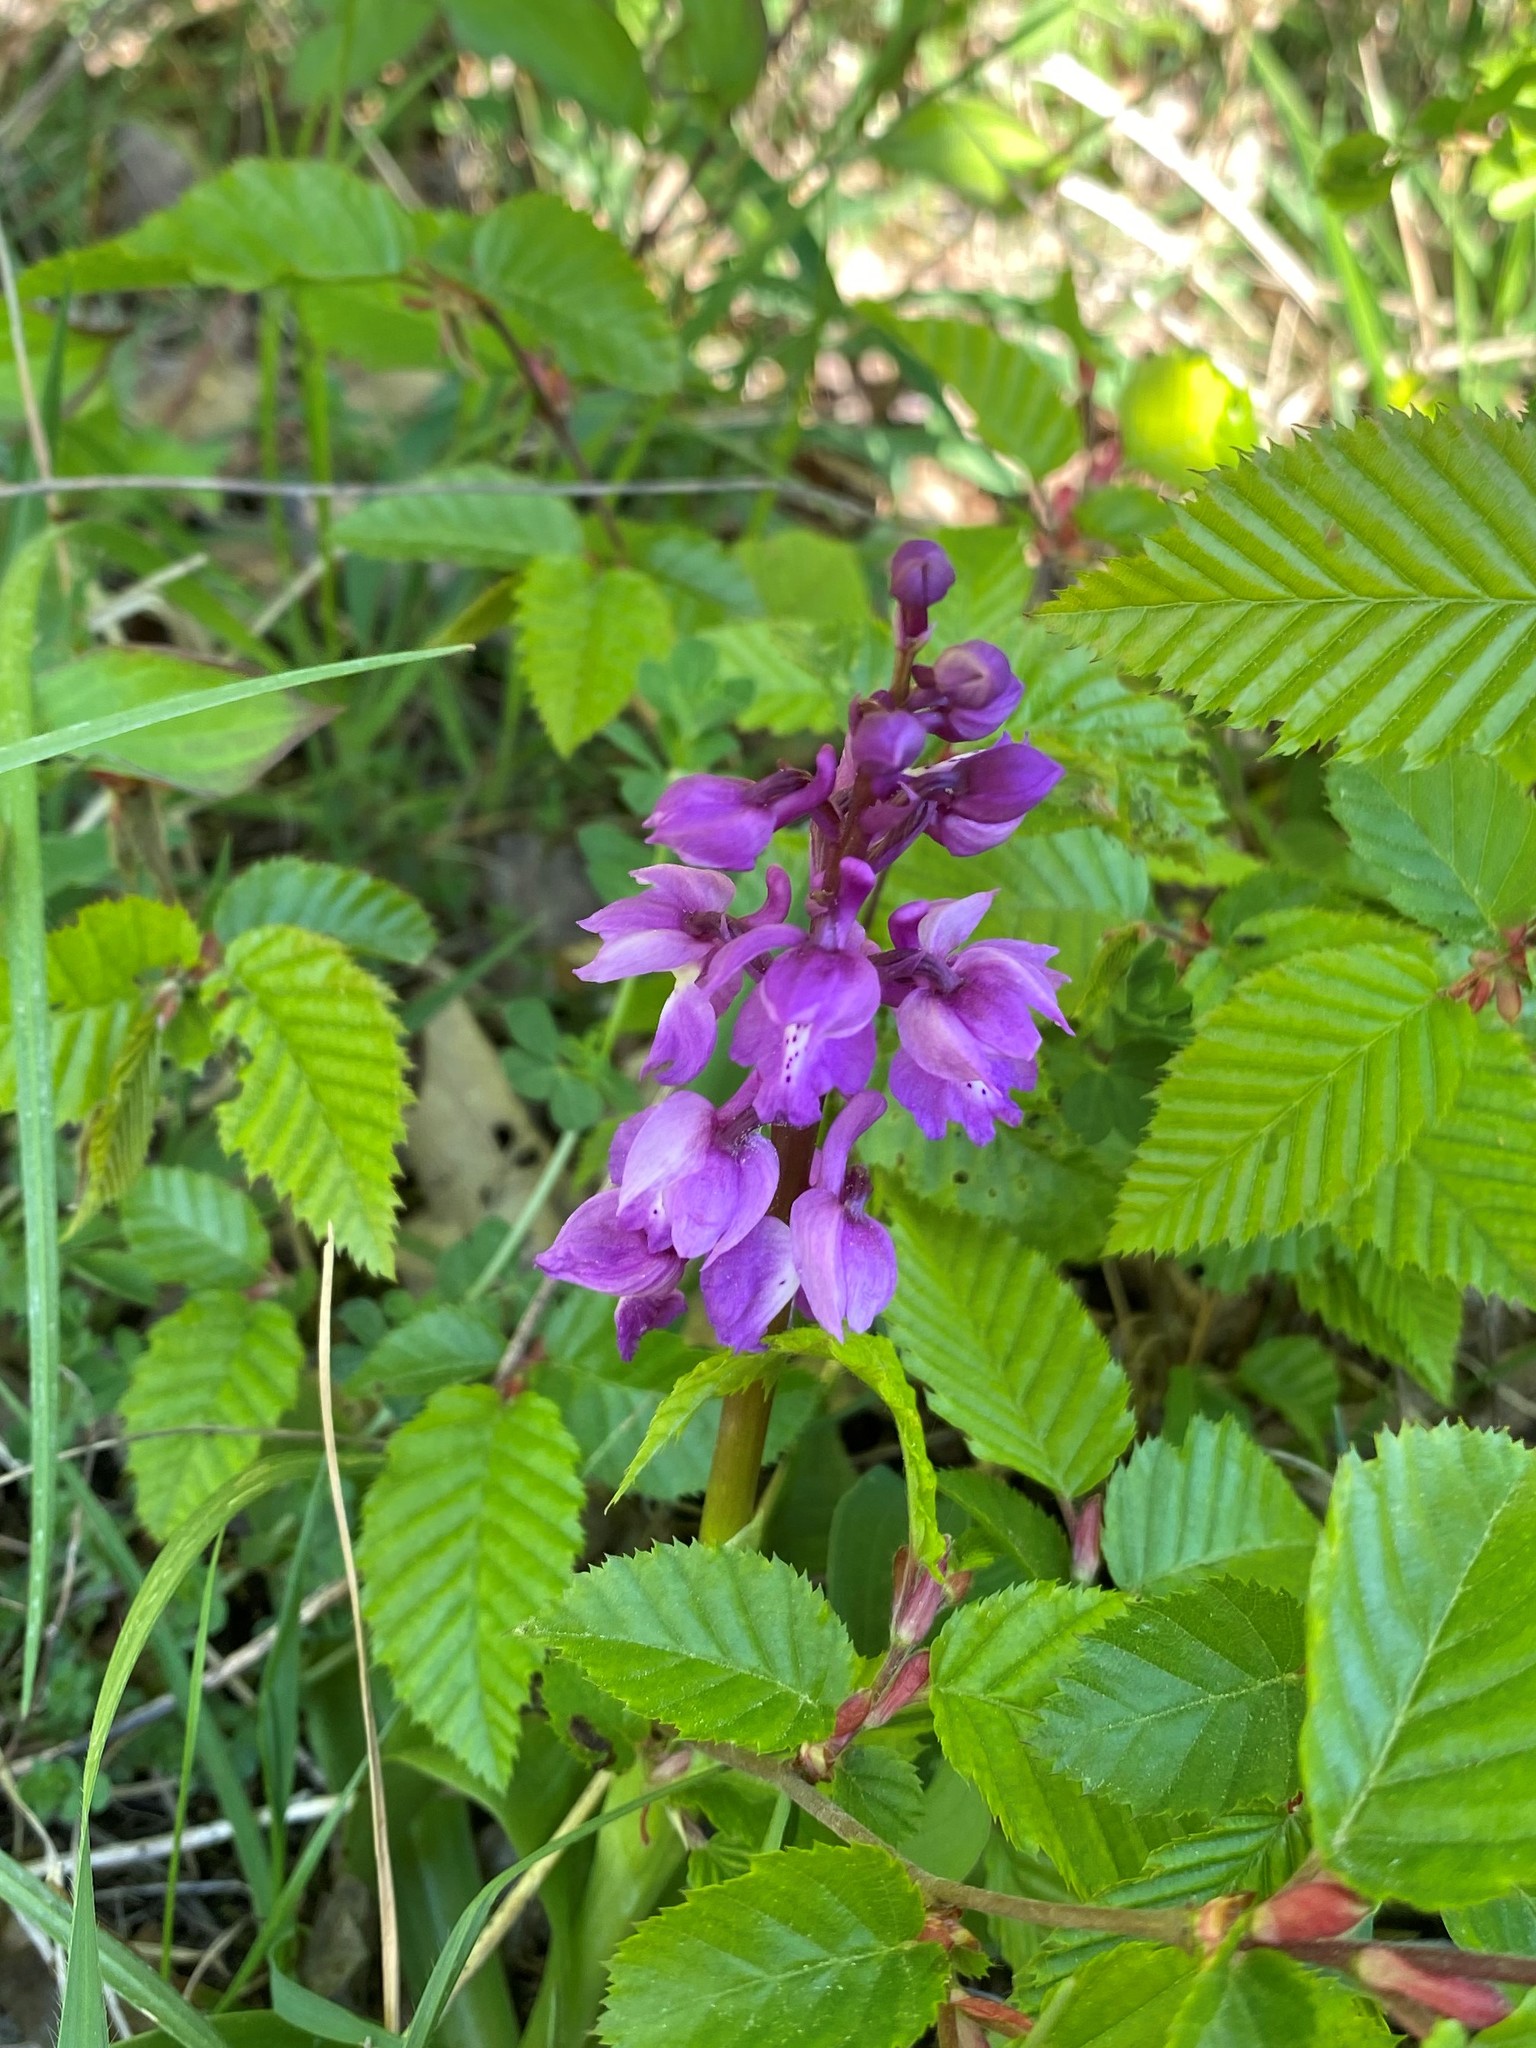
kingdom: Plantae
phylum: Tracheophyta
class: Liliopsida
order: Asparagales
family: Orchidaceae
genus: Orchis
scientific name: Orchis mascula
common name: Early-purple orchid
